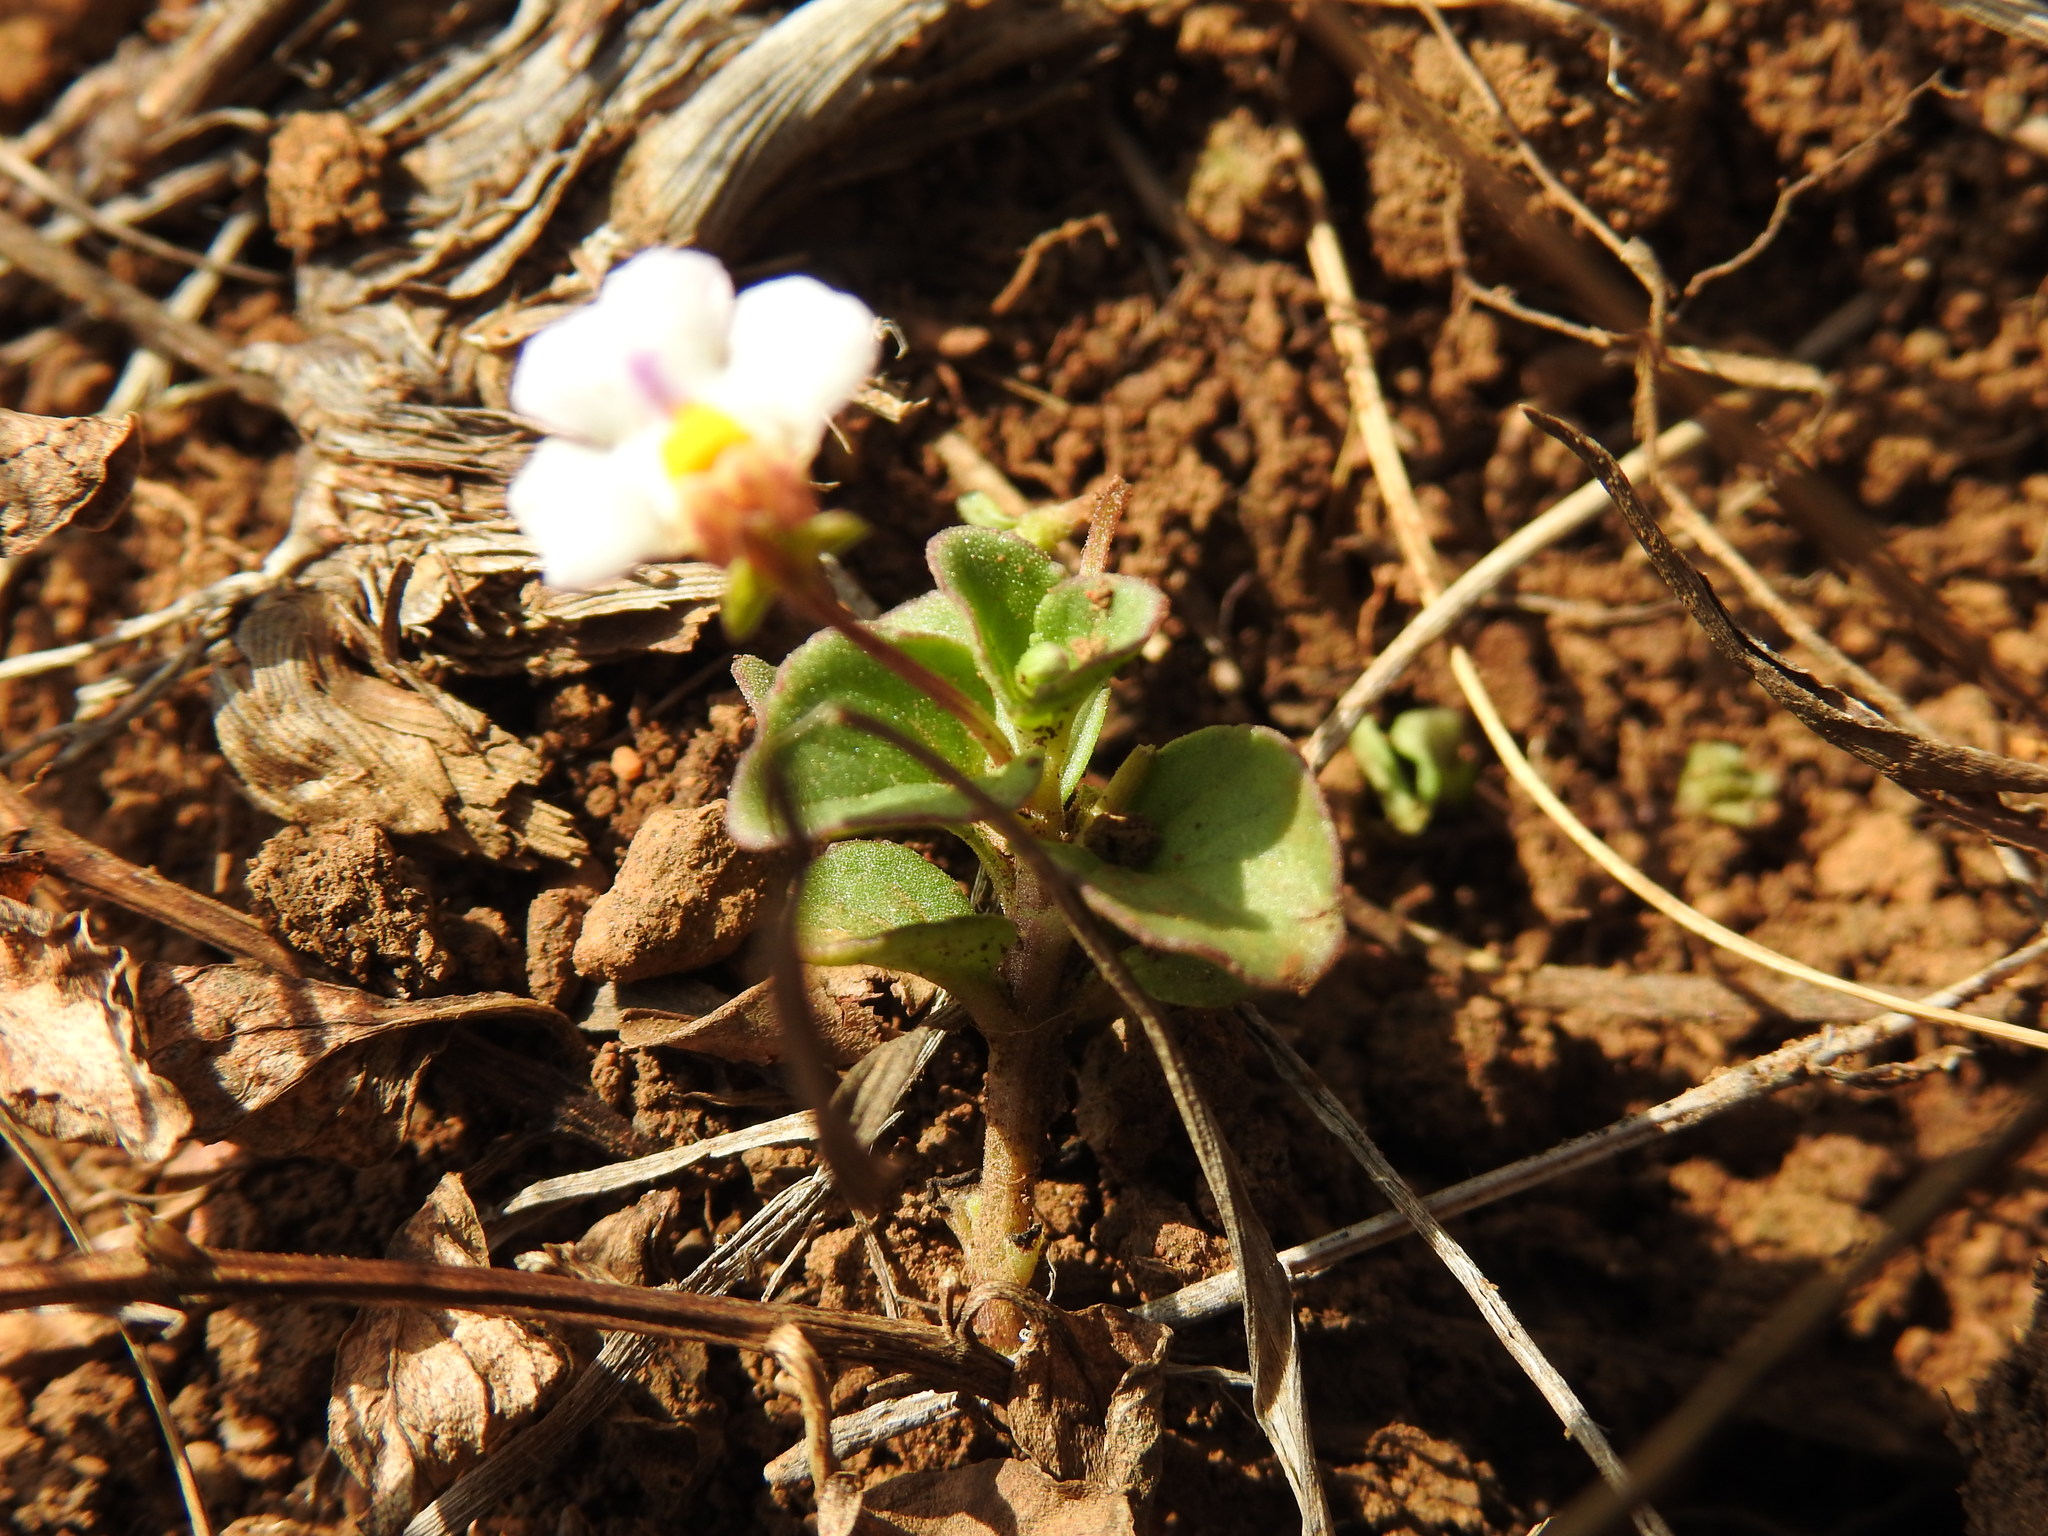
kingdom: Plantae
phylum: Tracheophyta
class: Magnoliopsida
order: Lamiales
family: Scrophulariaceae
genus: Diclis
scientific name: Diclis reptans
